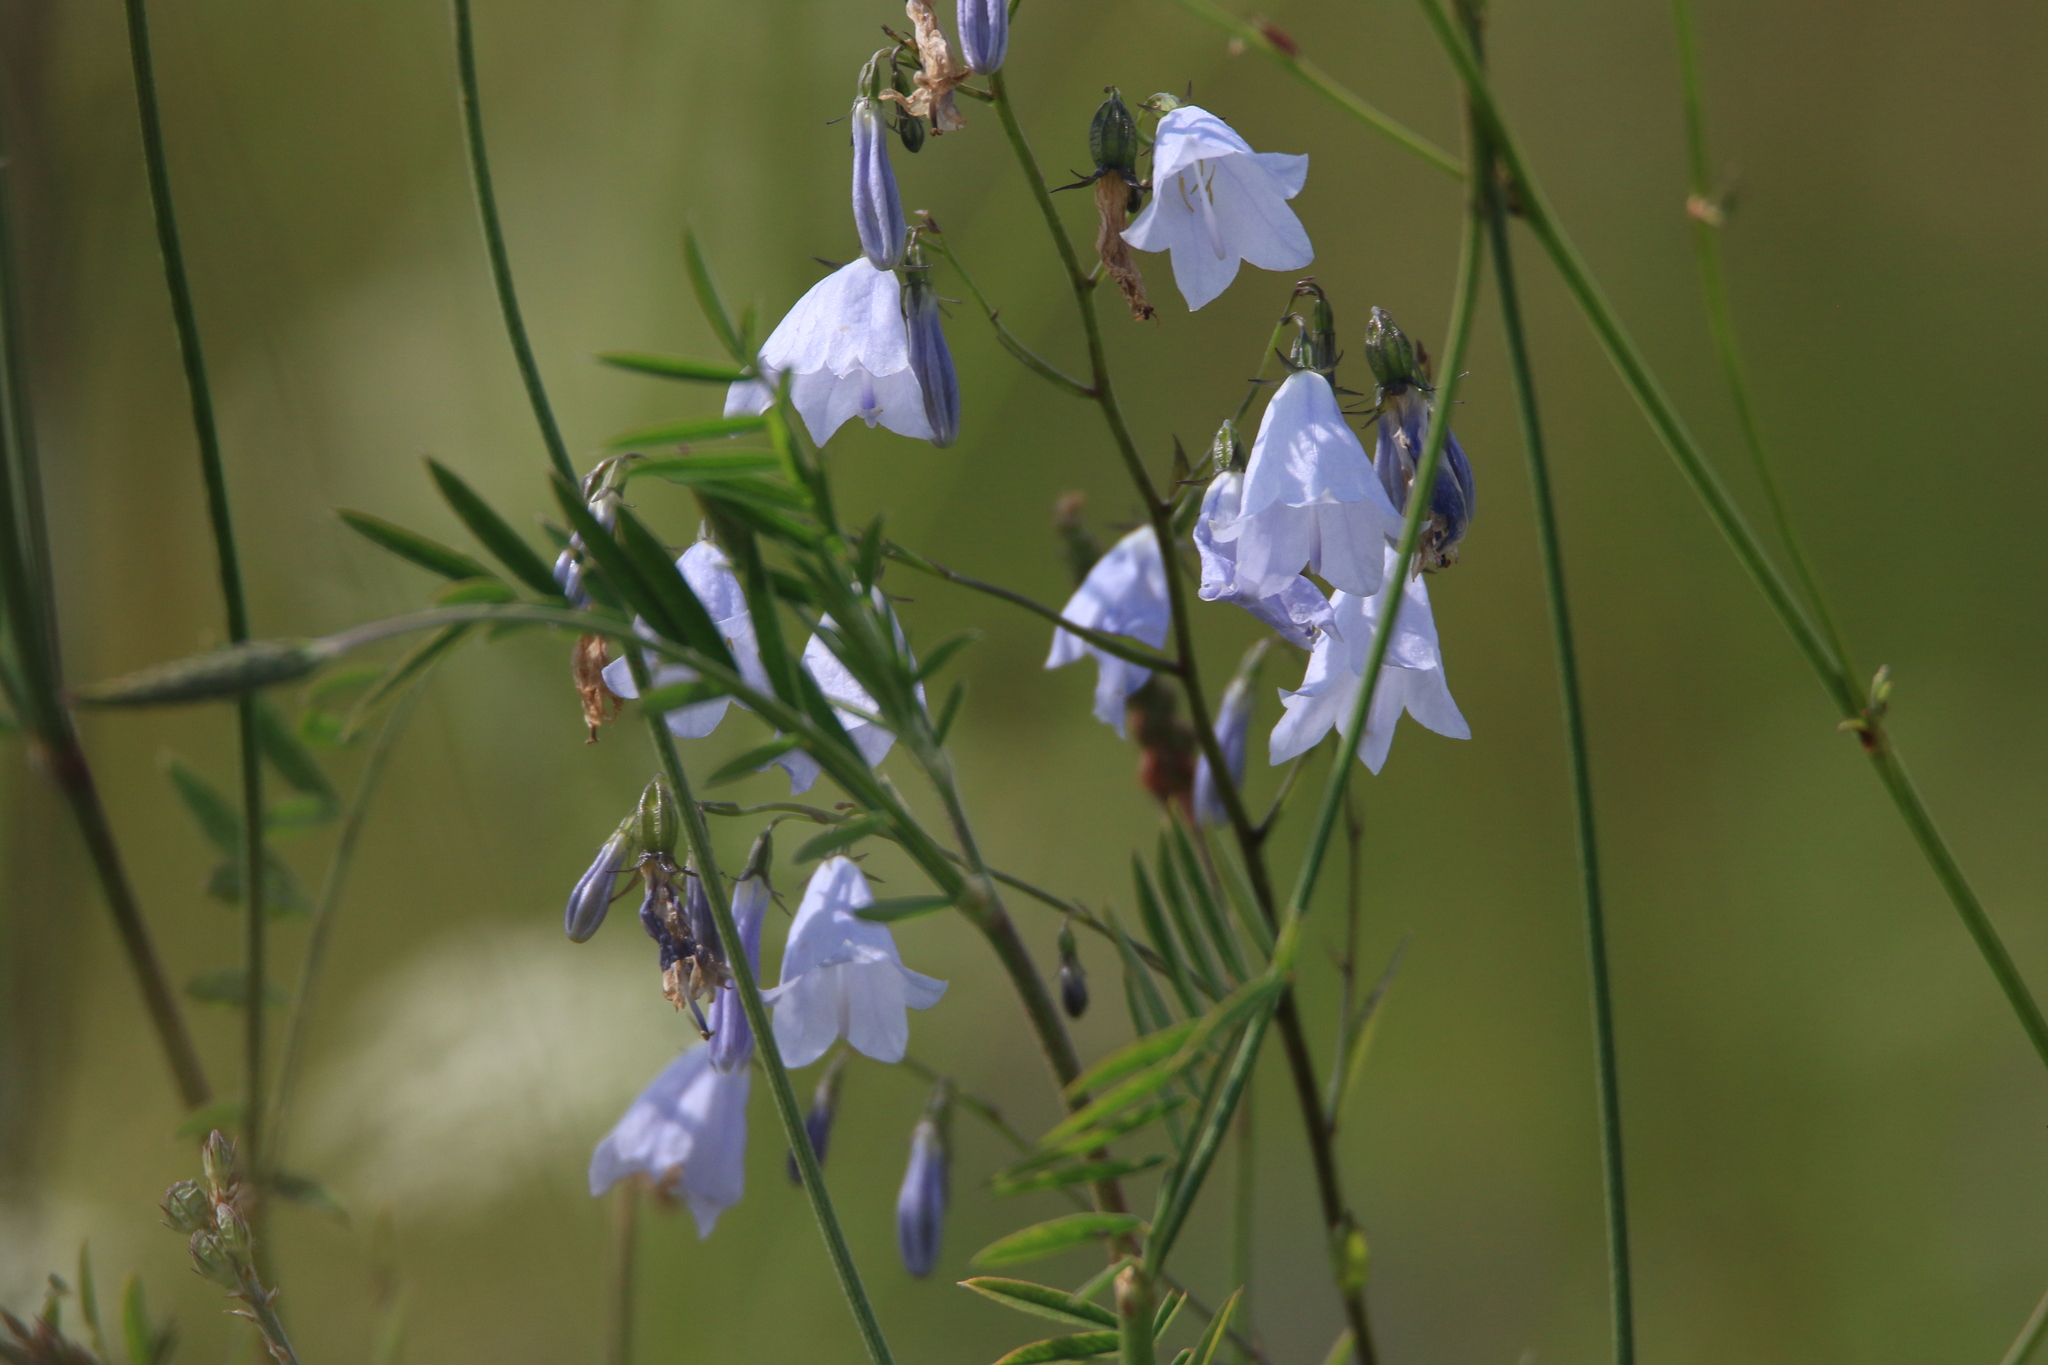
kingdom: Plantae
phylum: Tracheophyta
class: Magnoliopsida
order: Asterales
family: Campanulaceae
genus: Adenophora
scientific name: Adenophora liliifolia
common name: Lilyleaf ladybells
